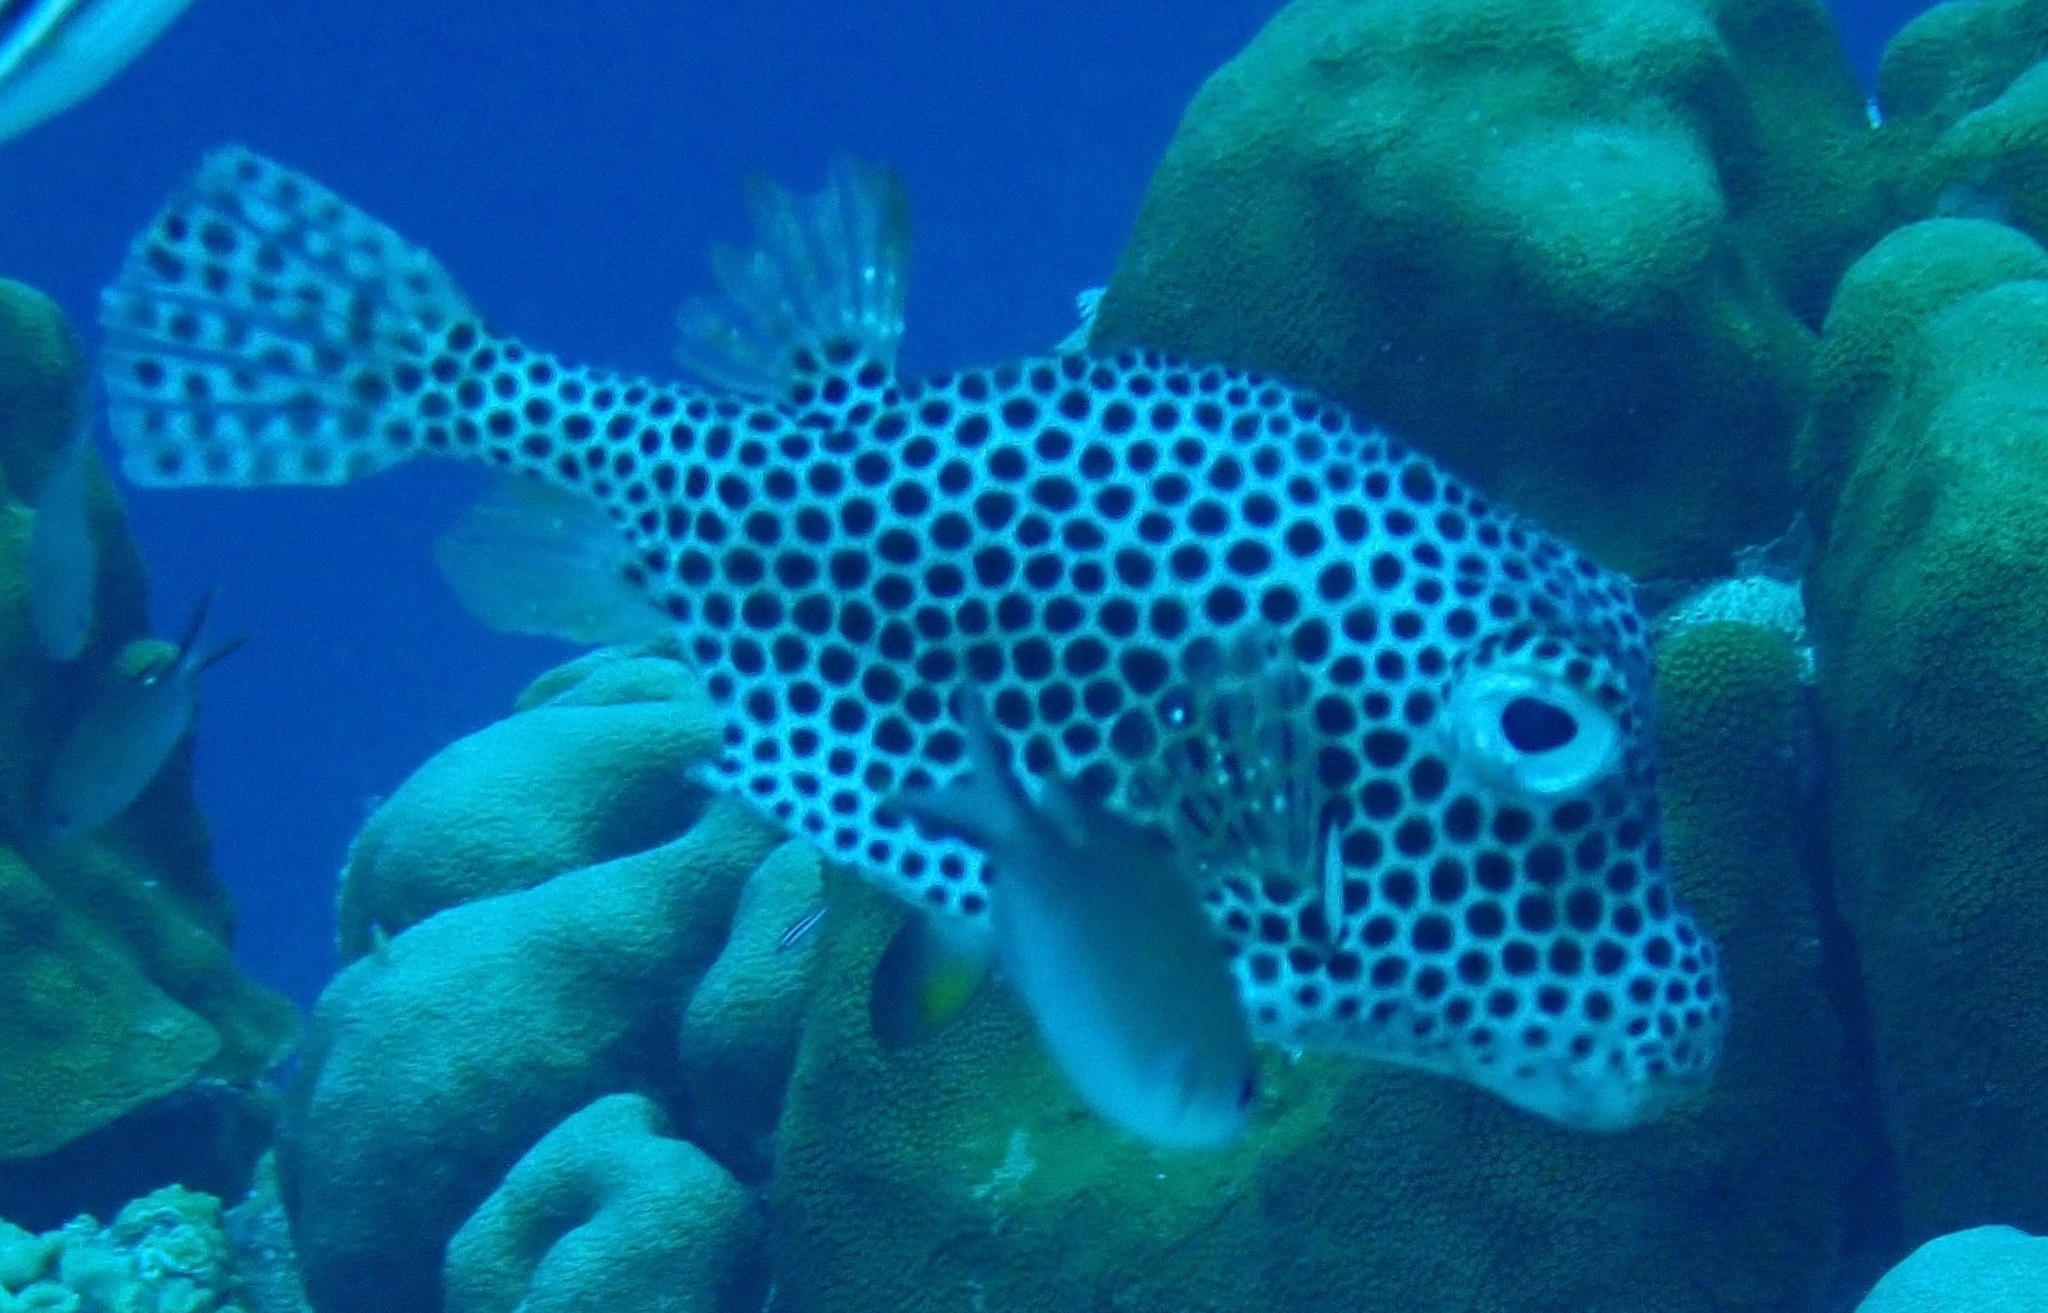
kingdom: Animalia
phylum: Chordata
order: Tetraodontiformes
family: Ostraciidae
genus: Lactophrys
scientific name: Lactophrys bicaudalis
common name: Spotted trunkfish
